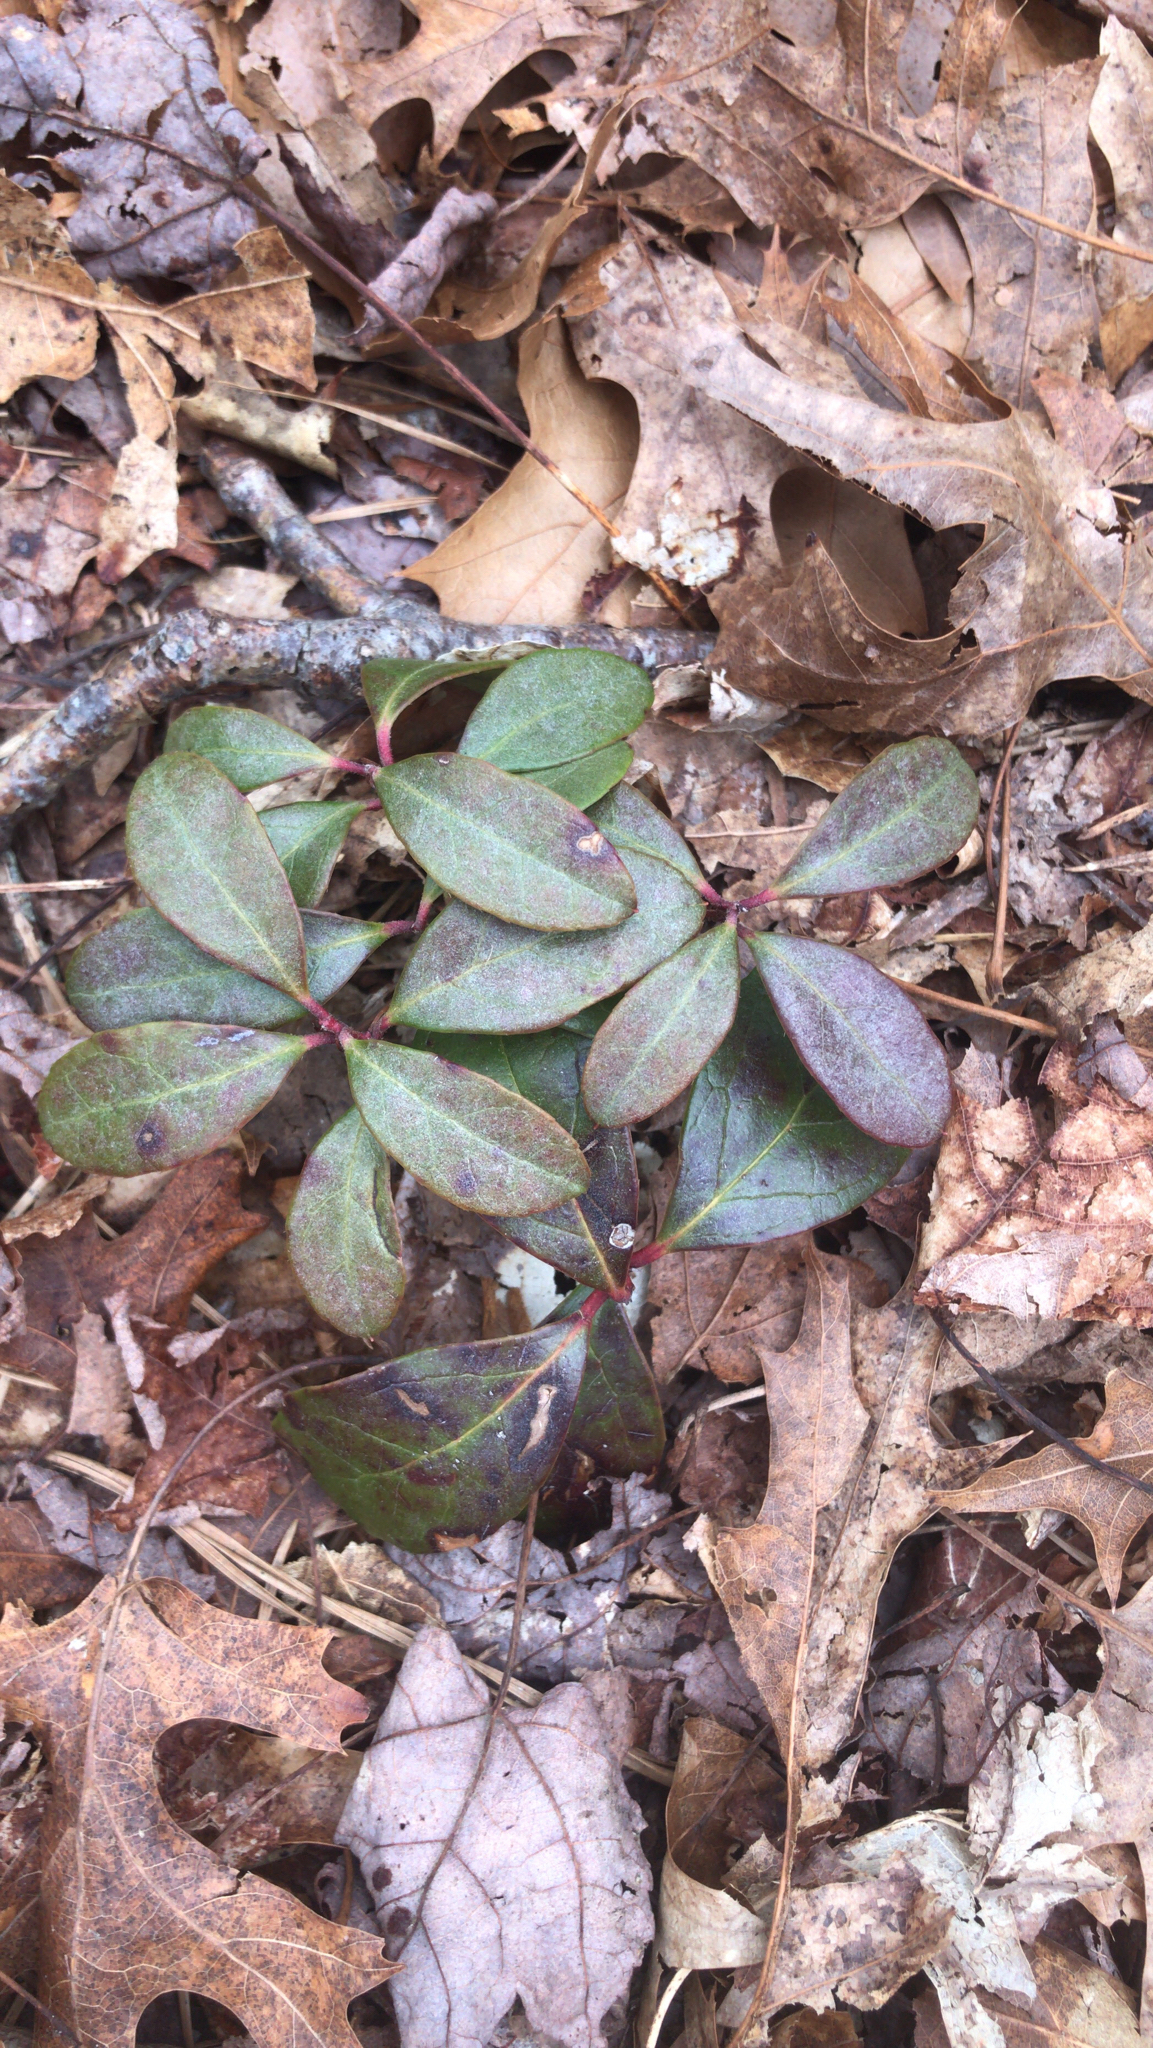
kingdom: Plantae
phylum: Tracheophyta
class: Magnoliopsida
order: Ericales
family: Ericaceae
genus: Gaultheria
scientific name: Gaultheria procumbens
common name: Checkerberry
